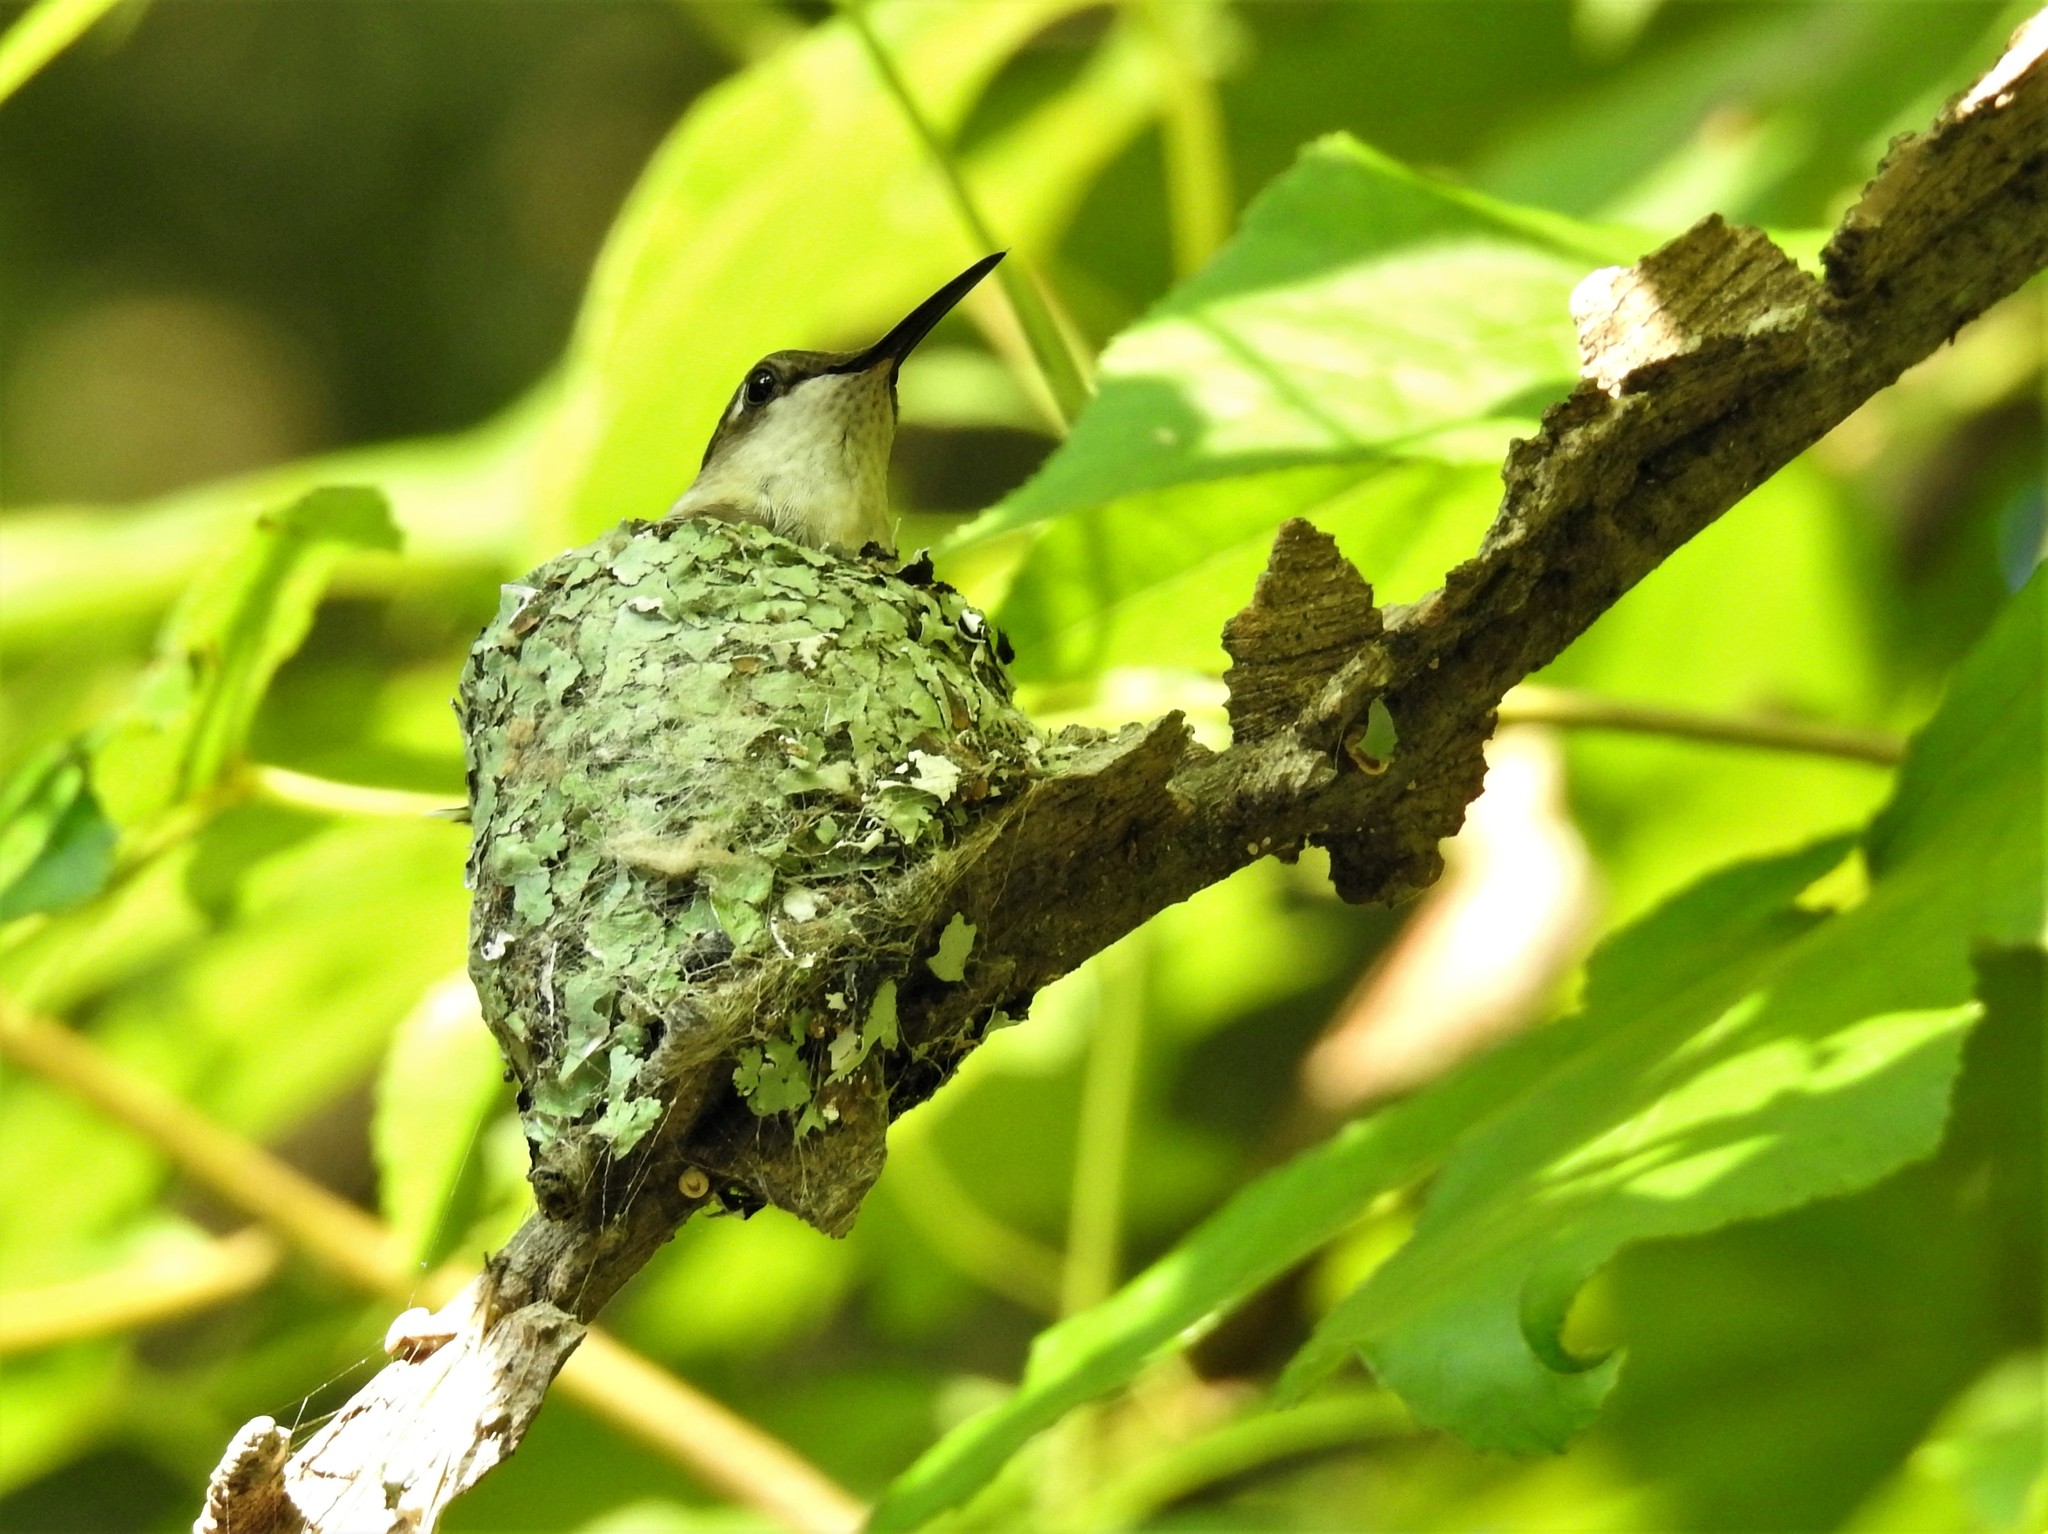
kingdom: Animalia
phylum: Chordata
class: Aves
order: Apodiformes
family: Trochilidae
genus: Archilochus
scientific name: Archilochus colubris
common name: Ruby-throated hummingbird
